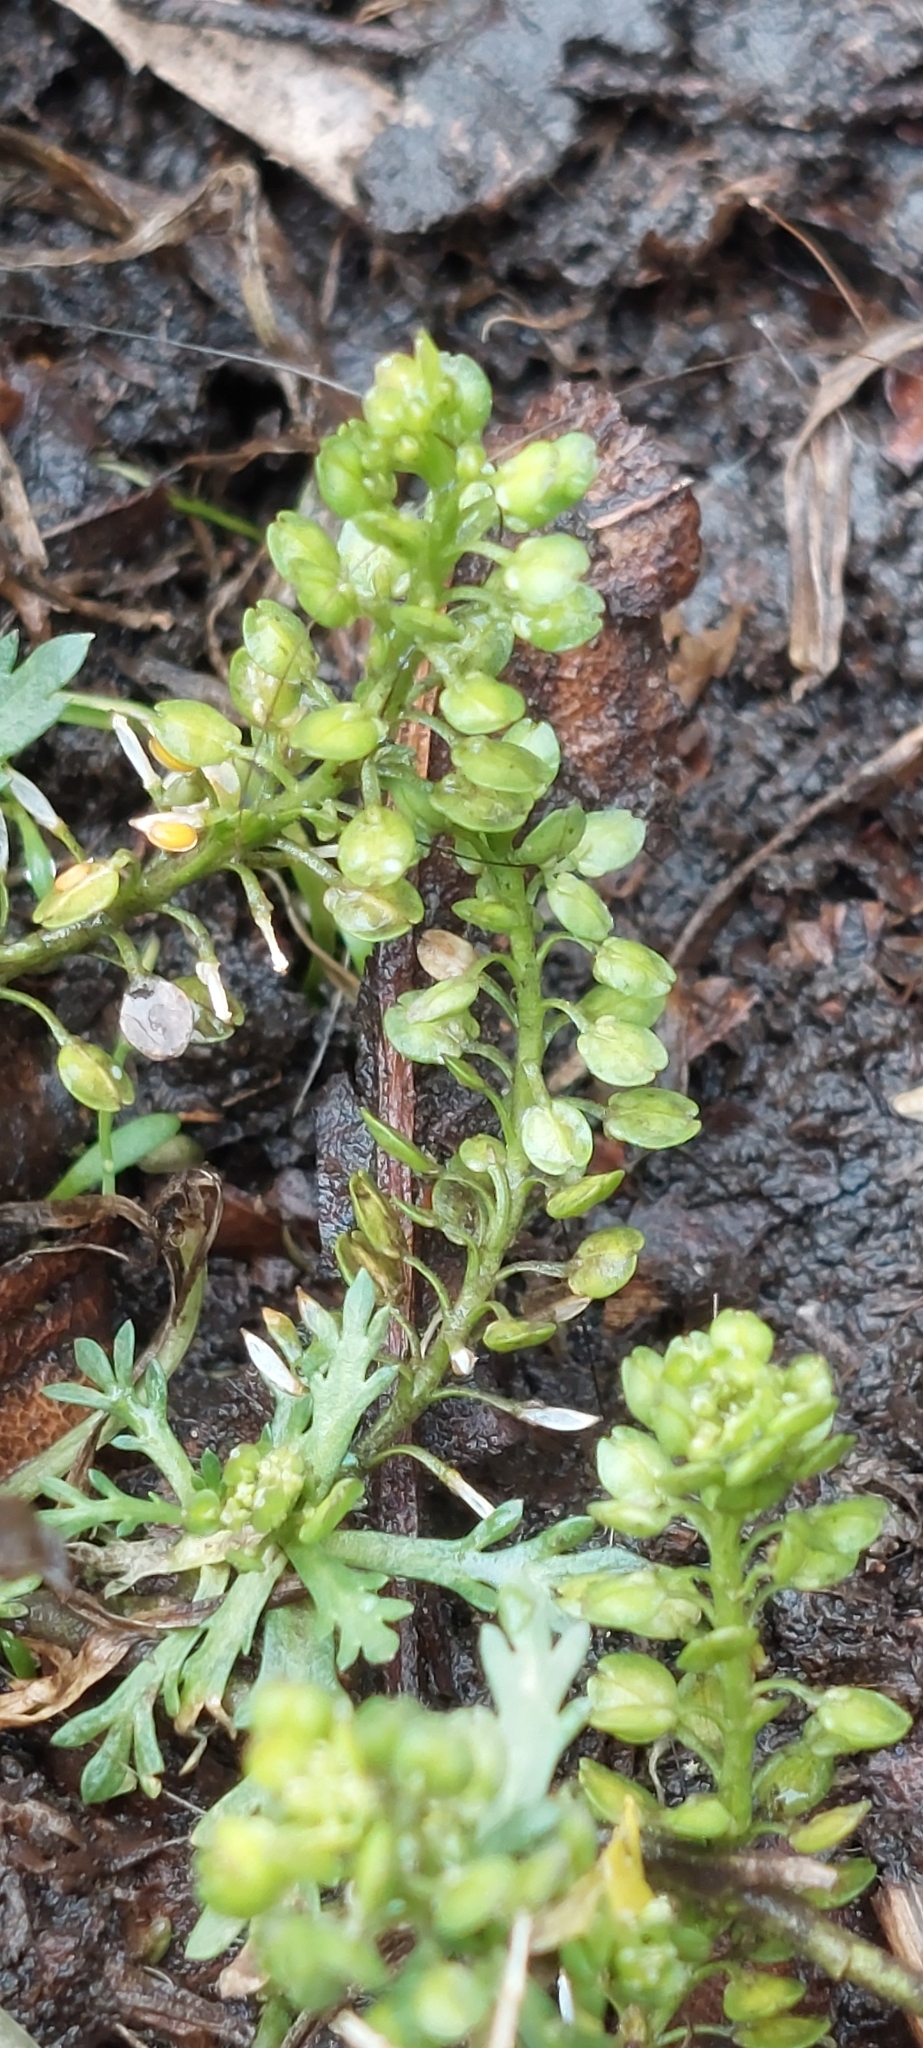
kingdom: Plantae
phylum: Tracheophyta
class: Magnoliopsida
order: Brassicales
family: Brassicaceae
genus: Lepidium
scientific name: Lepidium bipinnatifidum
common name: Wayside pepperwort
